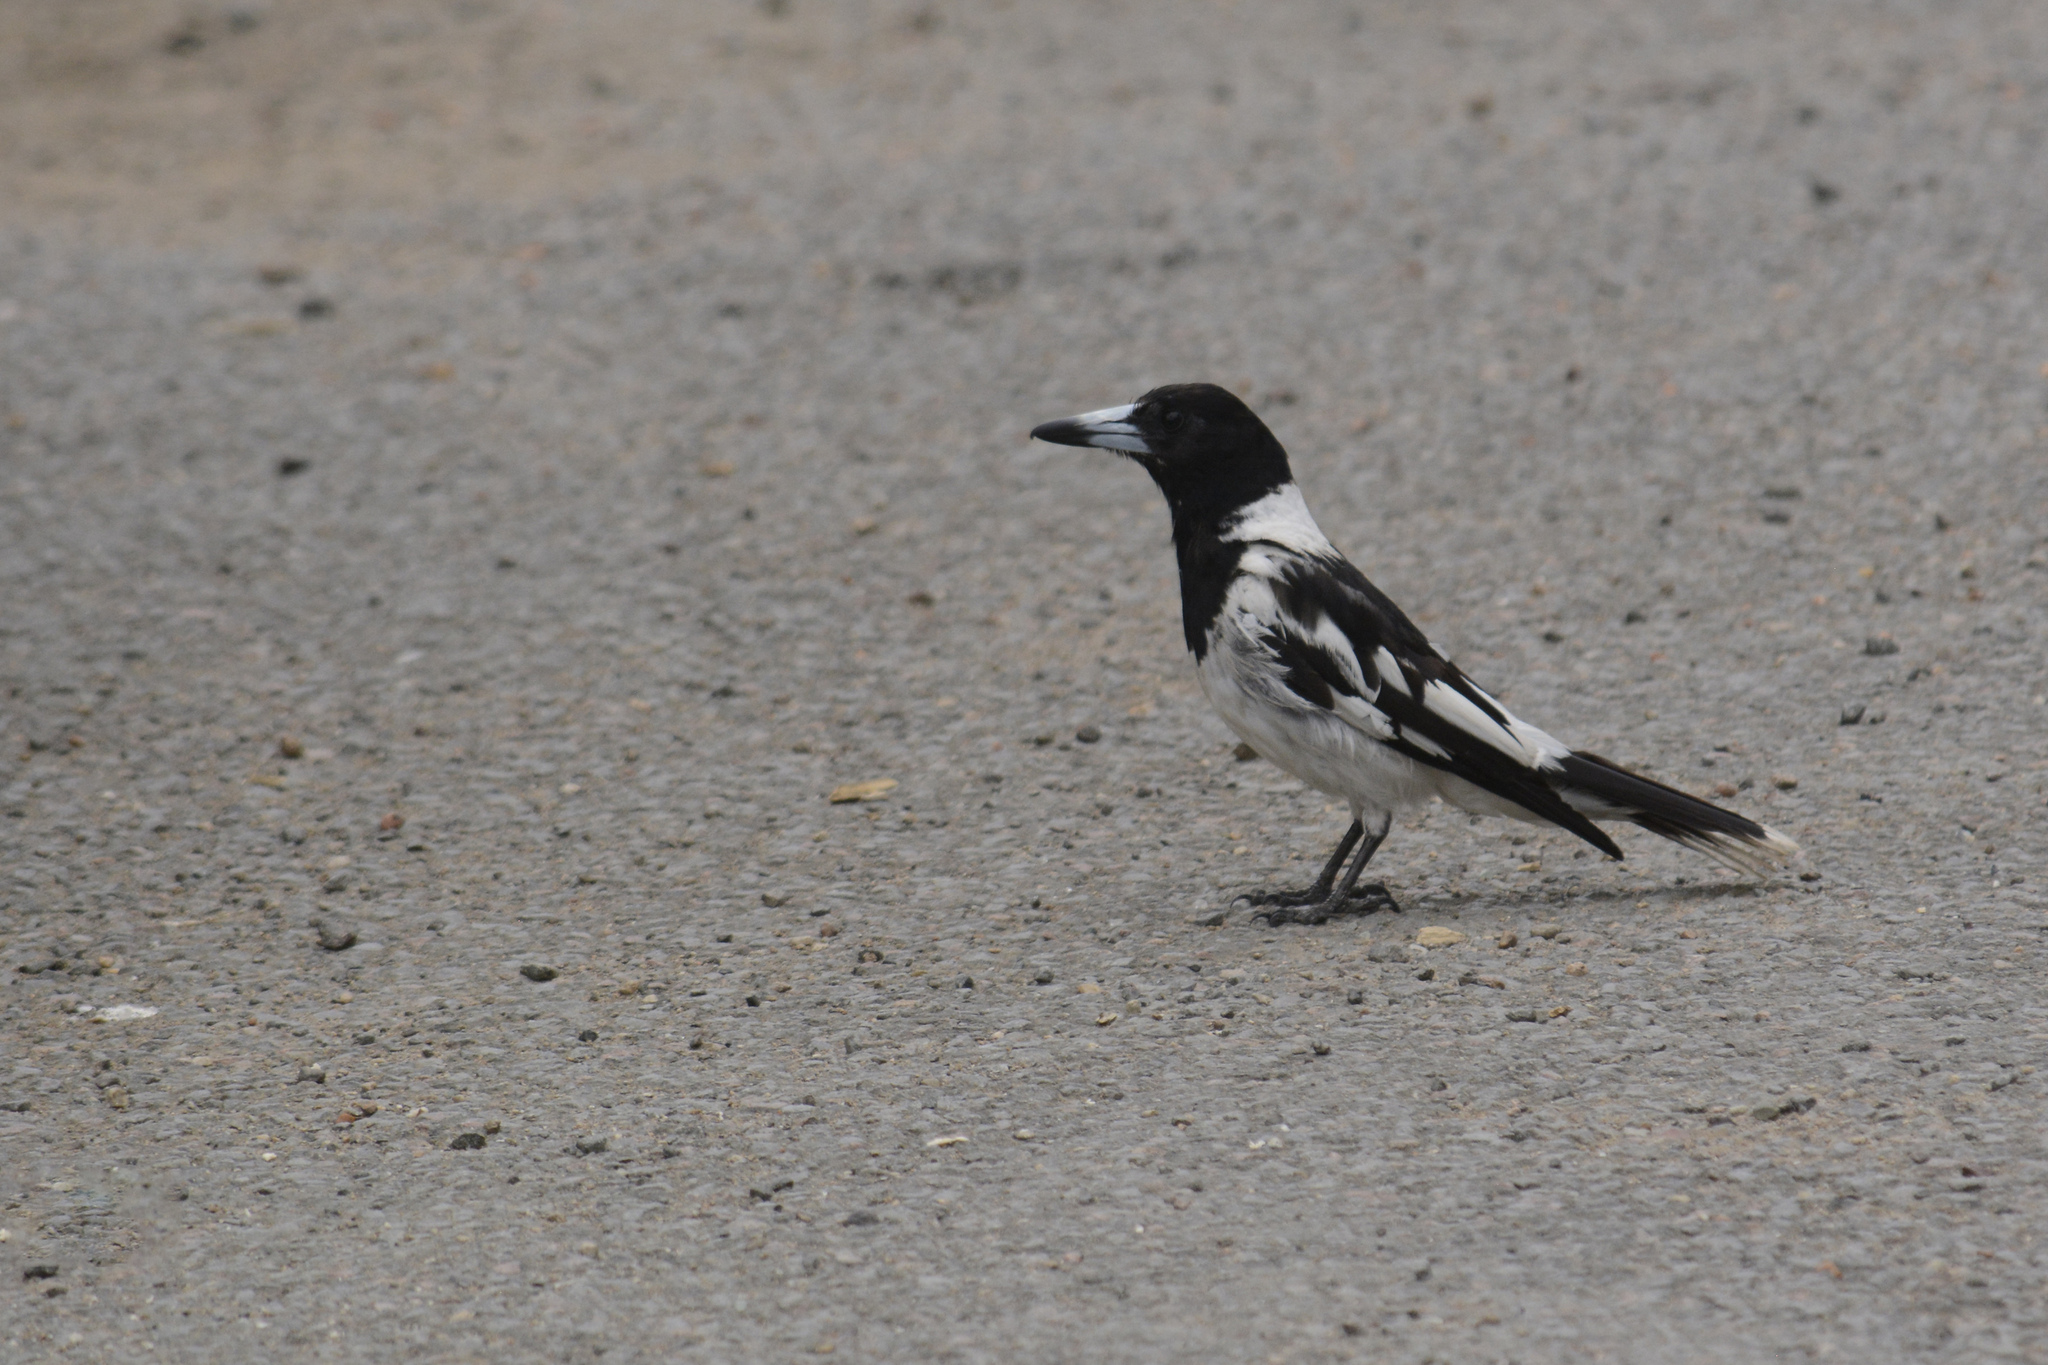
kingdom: Animalia
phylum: Chordata
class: Aves
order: Passeriformes
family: Cracticidae
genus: Cracticus
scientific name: Cracticus nigrogularis
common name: Pied butcherbird
